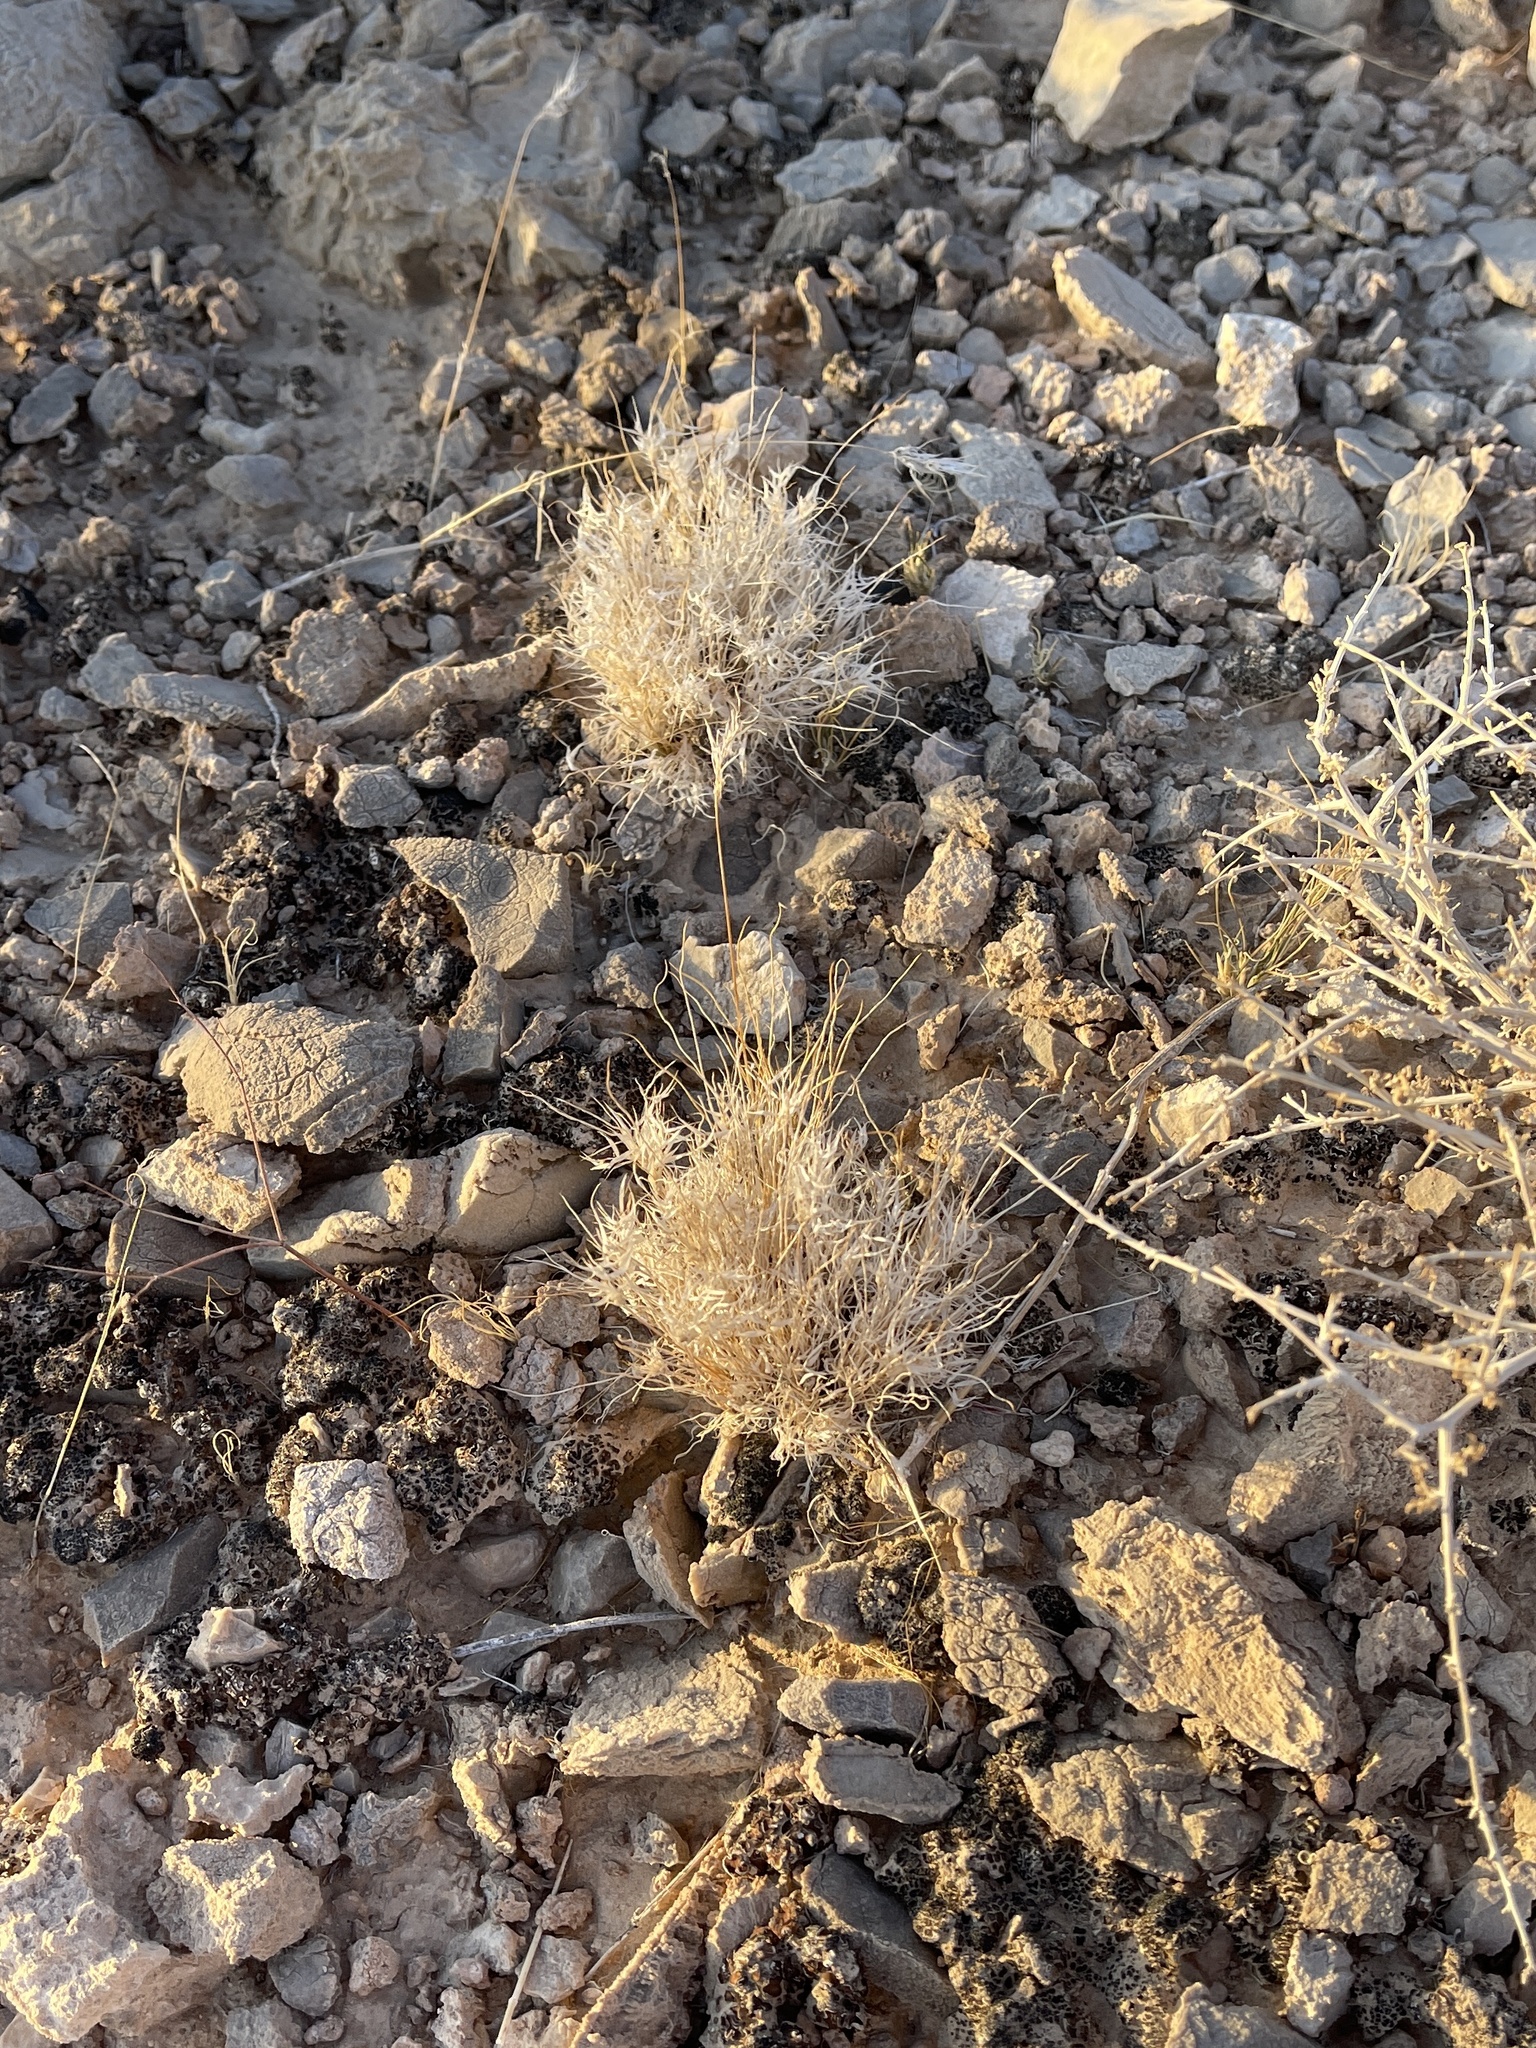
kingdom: Plantae
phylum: Tracheophyta
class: Liliopsida
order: Poales
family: Poaceae
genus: Dasyochloa
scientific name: Dasyochloa pulchella
